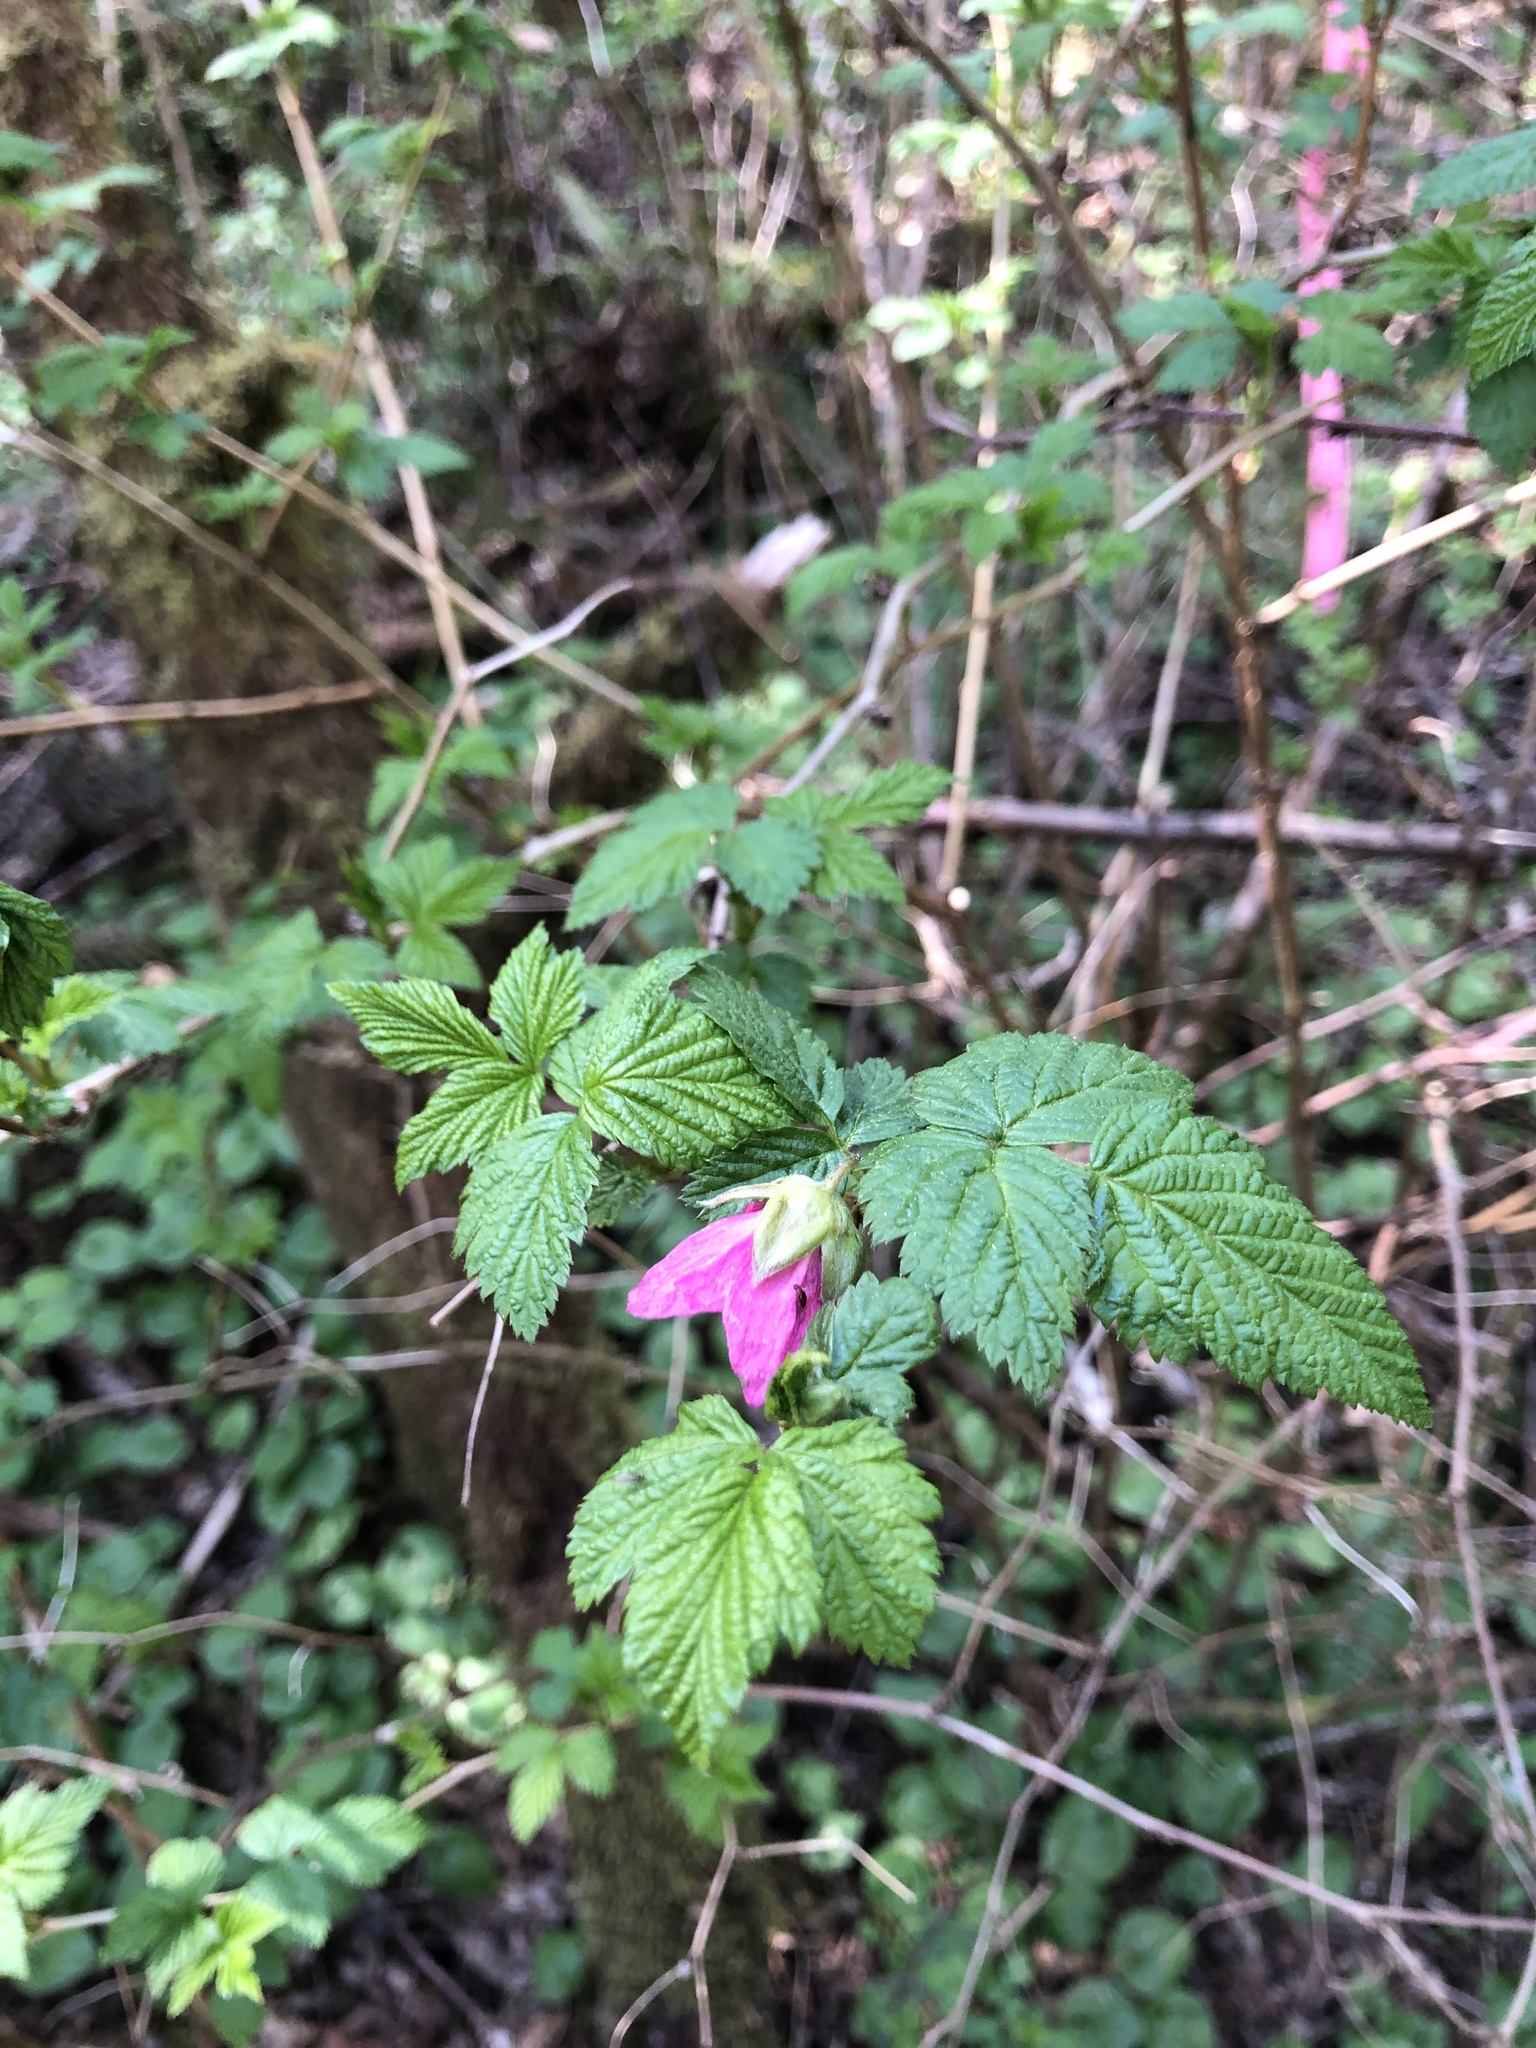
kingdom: Plantae
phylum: Tracheophyta
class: Magnoliopsida
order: Rosales
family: Rosaceae
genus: Rubus
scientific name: Rubus spectabilis
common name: Salmonberry
